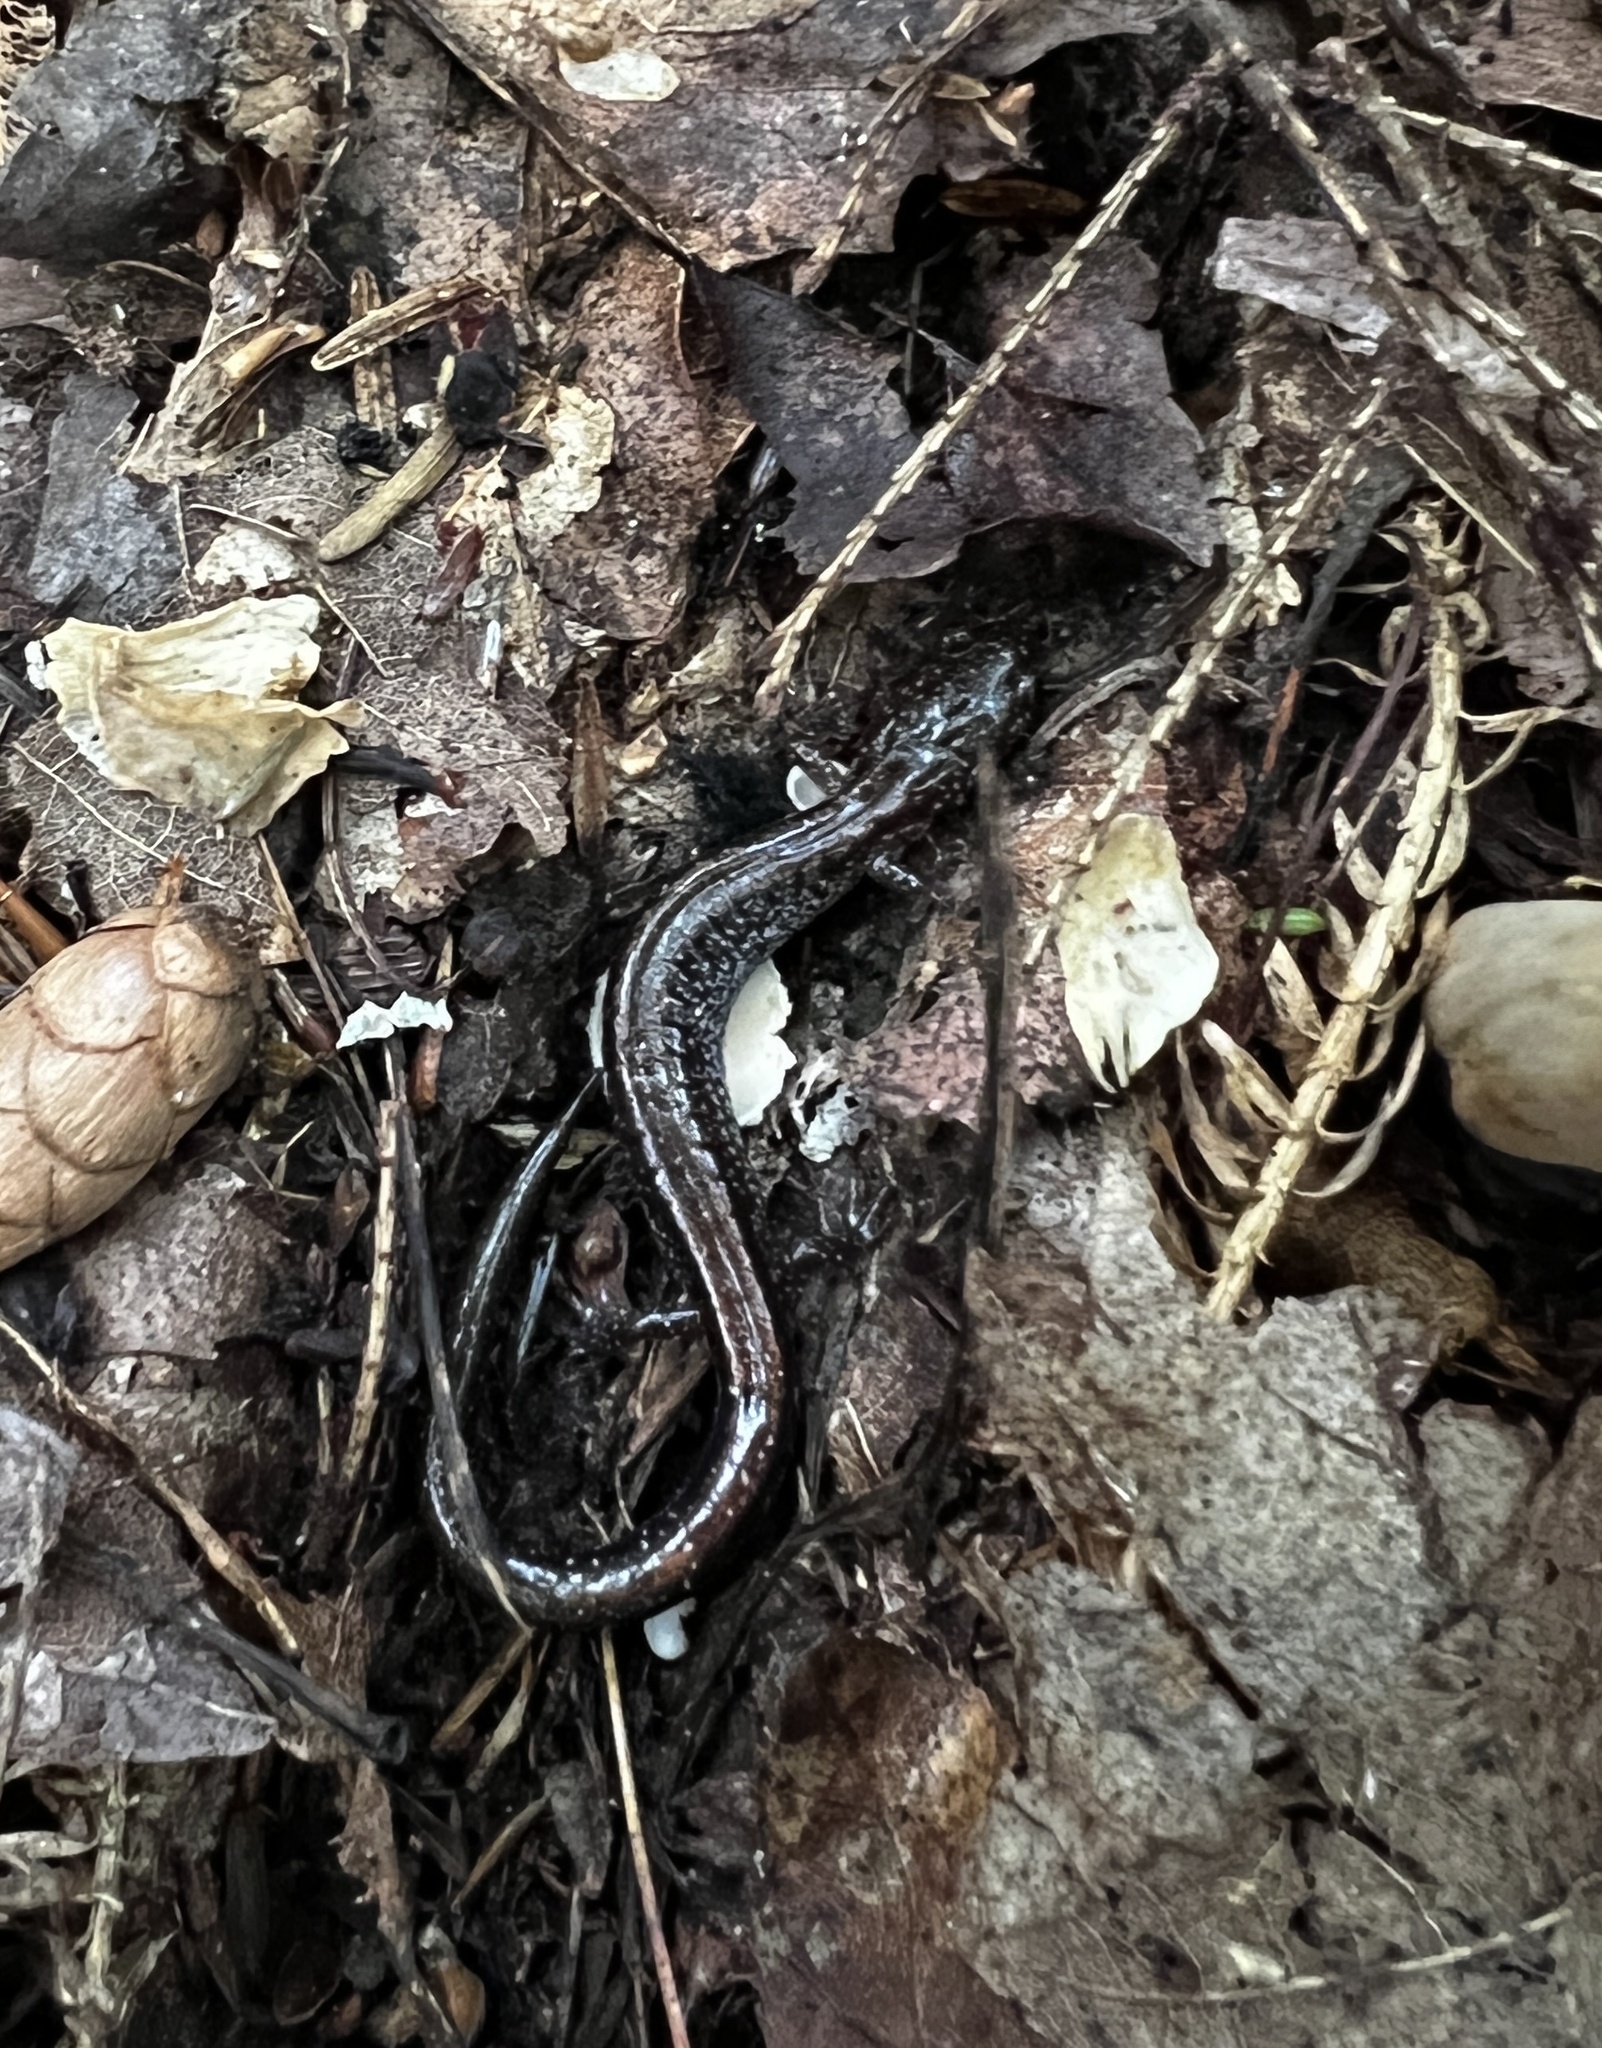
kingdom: Animalia
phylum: Chordata
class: Amphibia
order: Caudata
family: Plethodontidae
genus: Plethodon
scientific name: Plethodon cinereus
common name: Redback salamander
